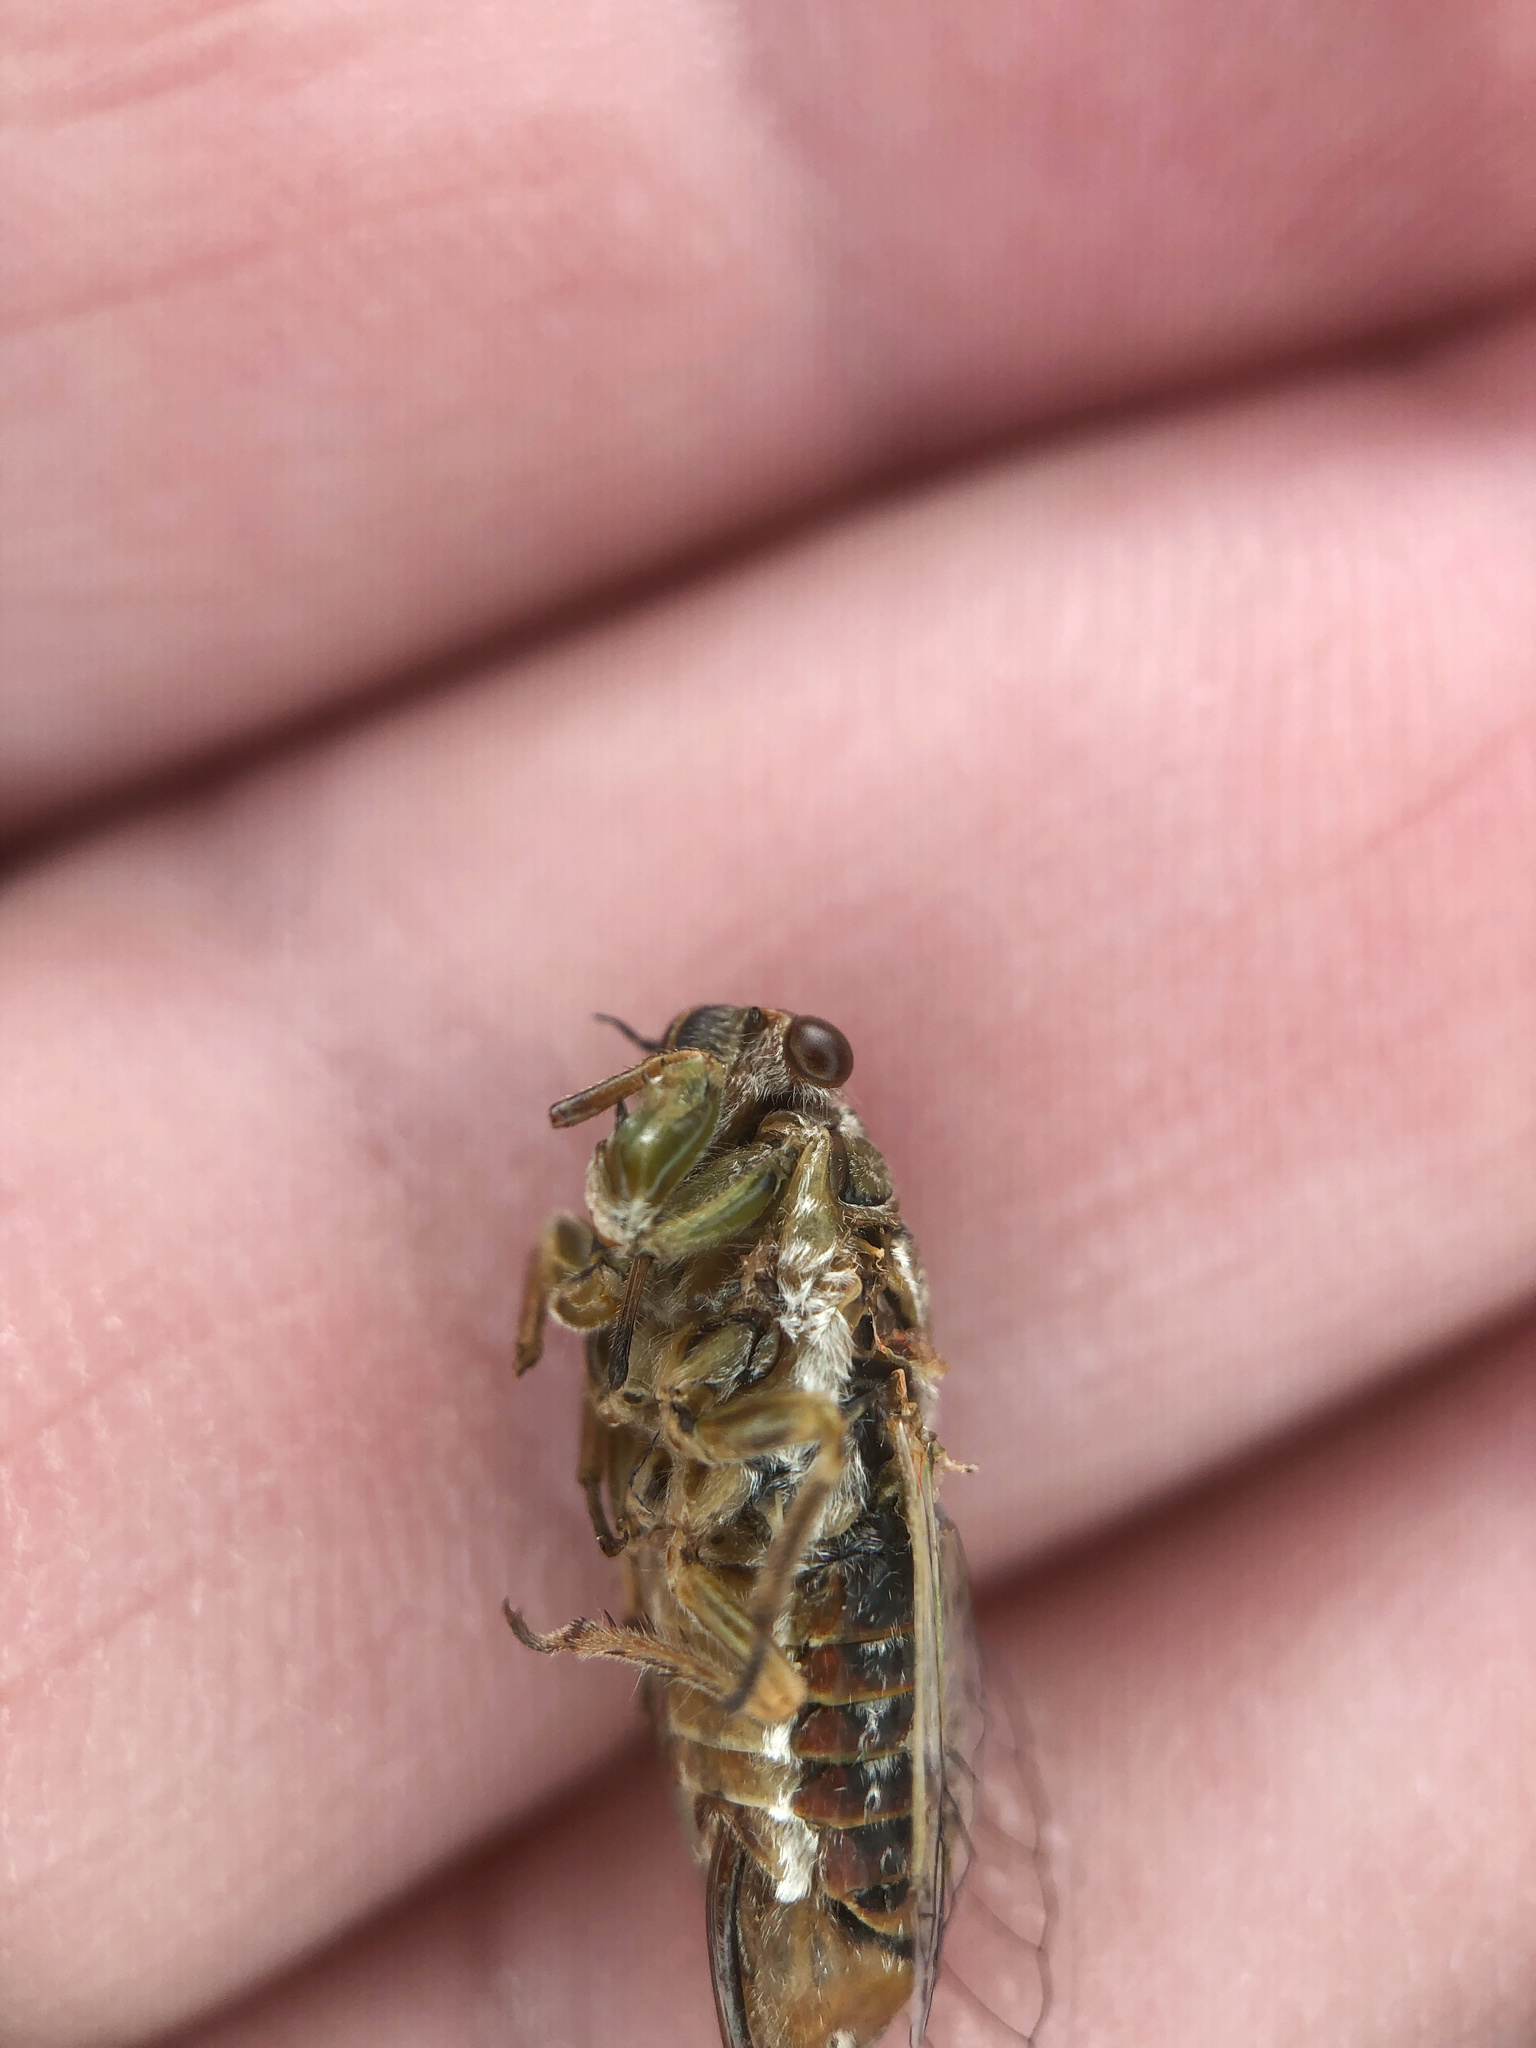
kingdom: Animalia
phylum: Arthropoda
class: Insecta
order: Hemiptera
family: Cicadidae
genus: Rhodopsalta
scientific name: Rhodopsalta microdora
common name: Little redtail cicada
